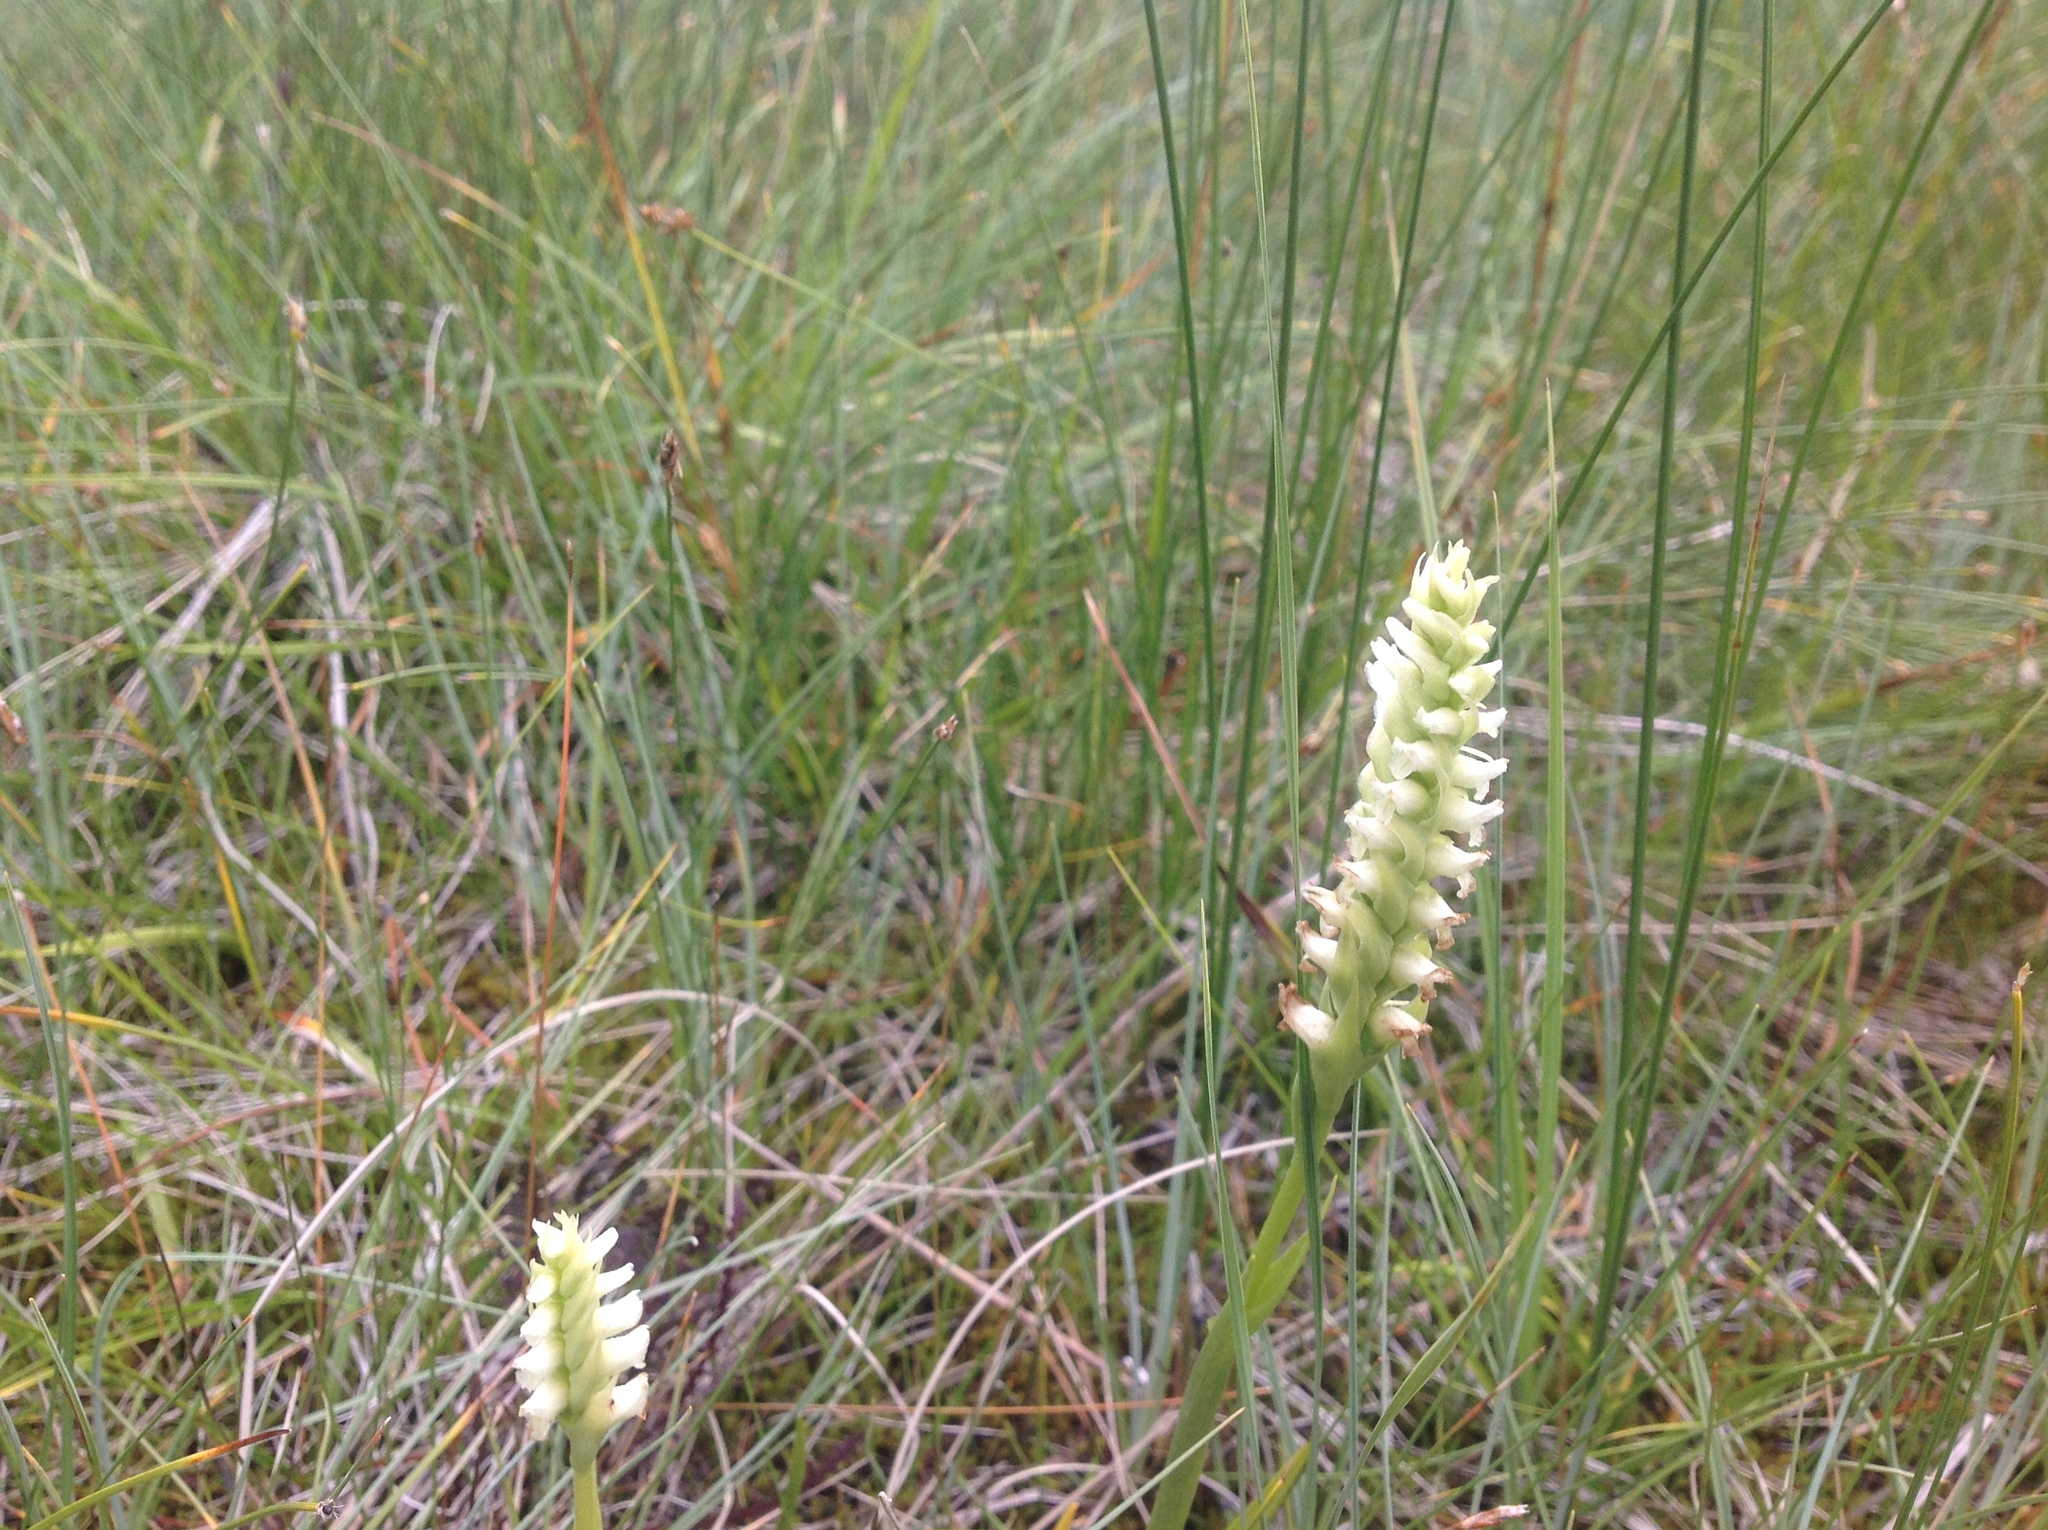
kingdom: Plantae
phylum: Tracheophyta
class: Liliopsida
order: Asparagales
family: Orchidaceae
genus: Spiranthes
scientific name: Spiranthes romanzoffiana
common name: Irish lady's-tresses
